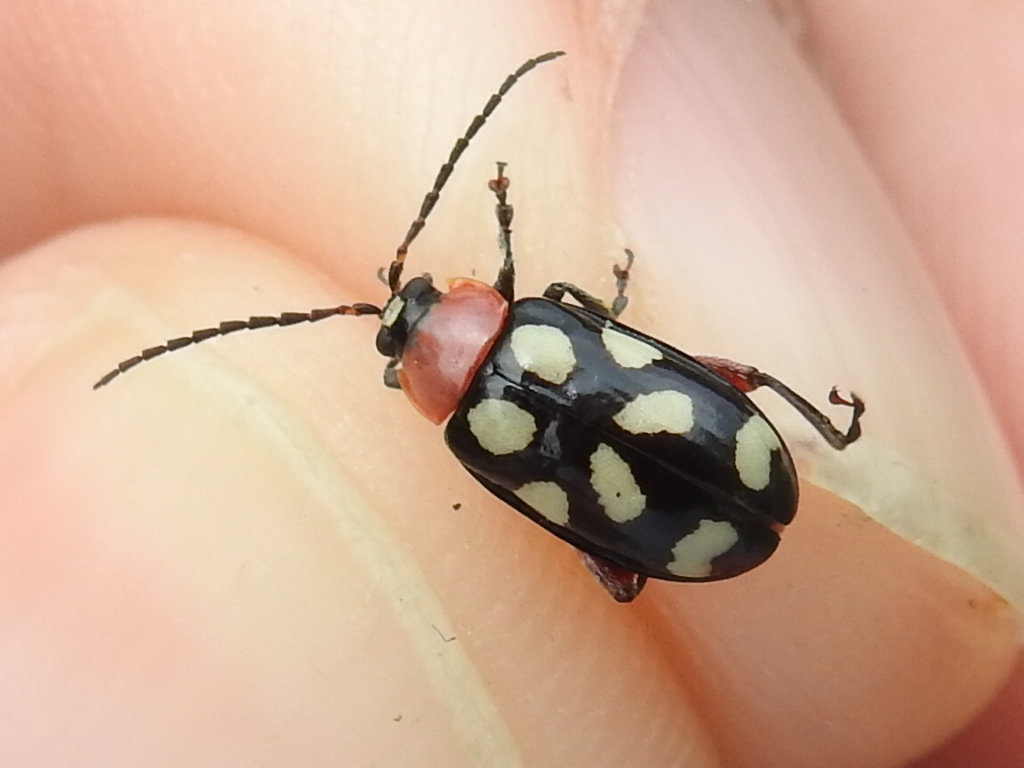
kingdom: Animalia
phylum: Arthropoda
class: Insecta
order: Coleoptera
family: Chrysomelidae
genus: Omophoita
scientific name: Omophoita cyanipennis
